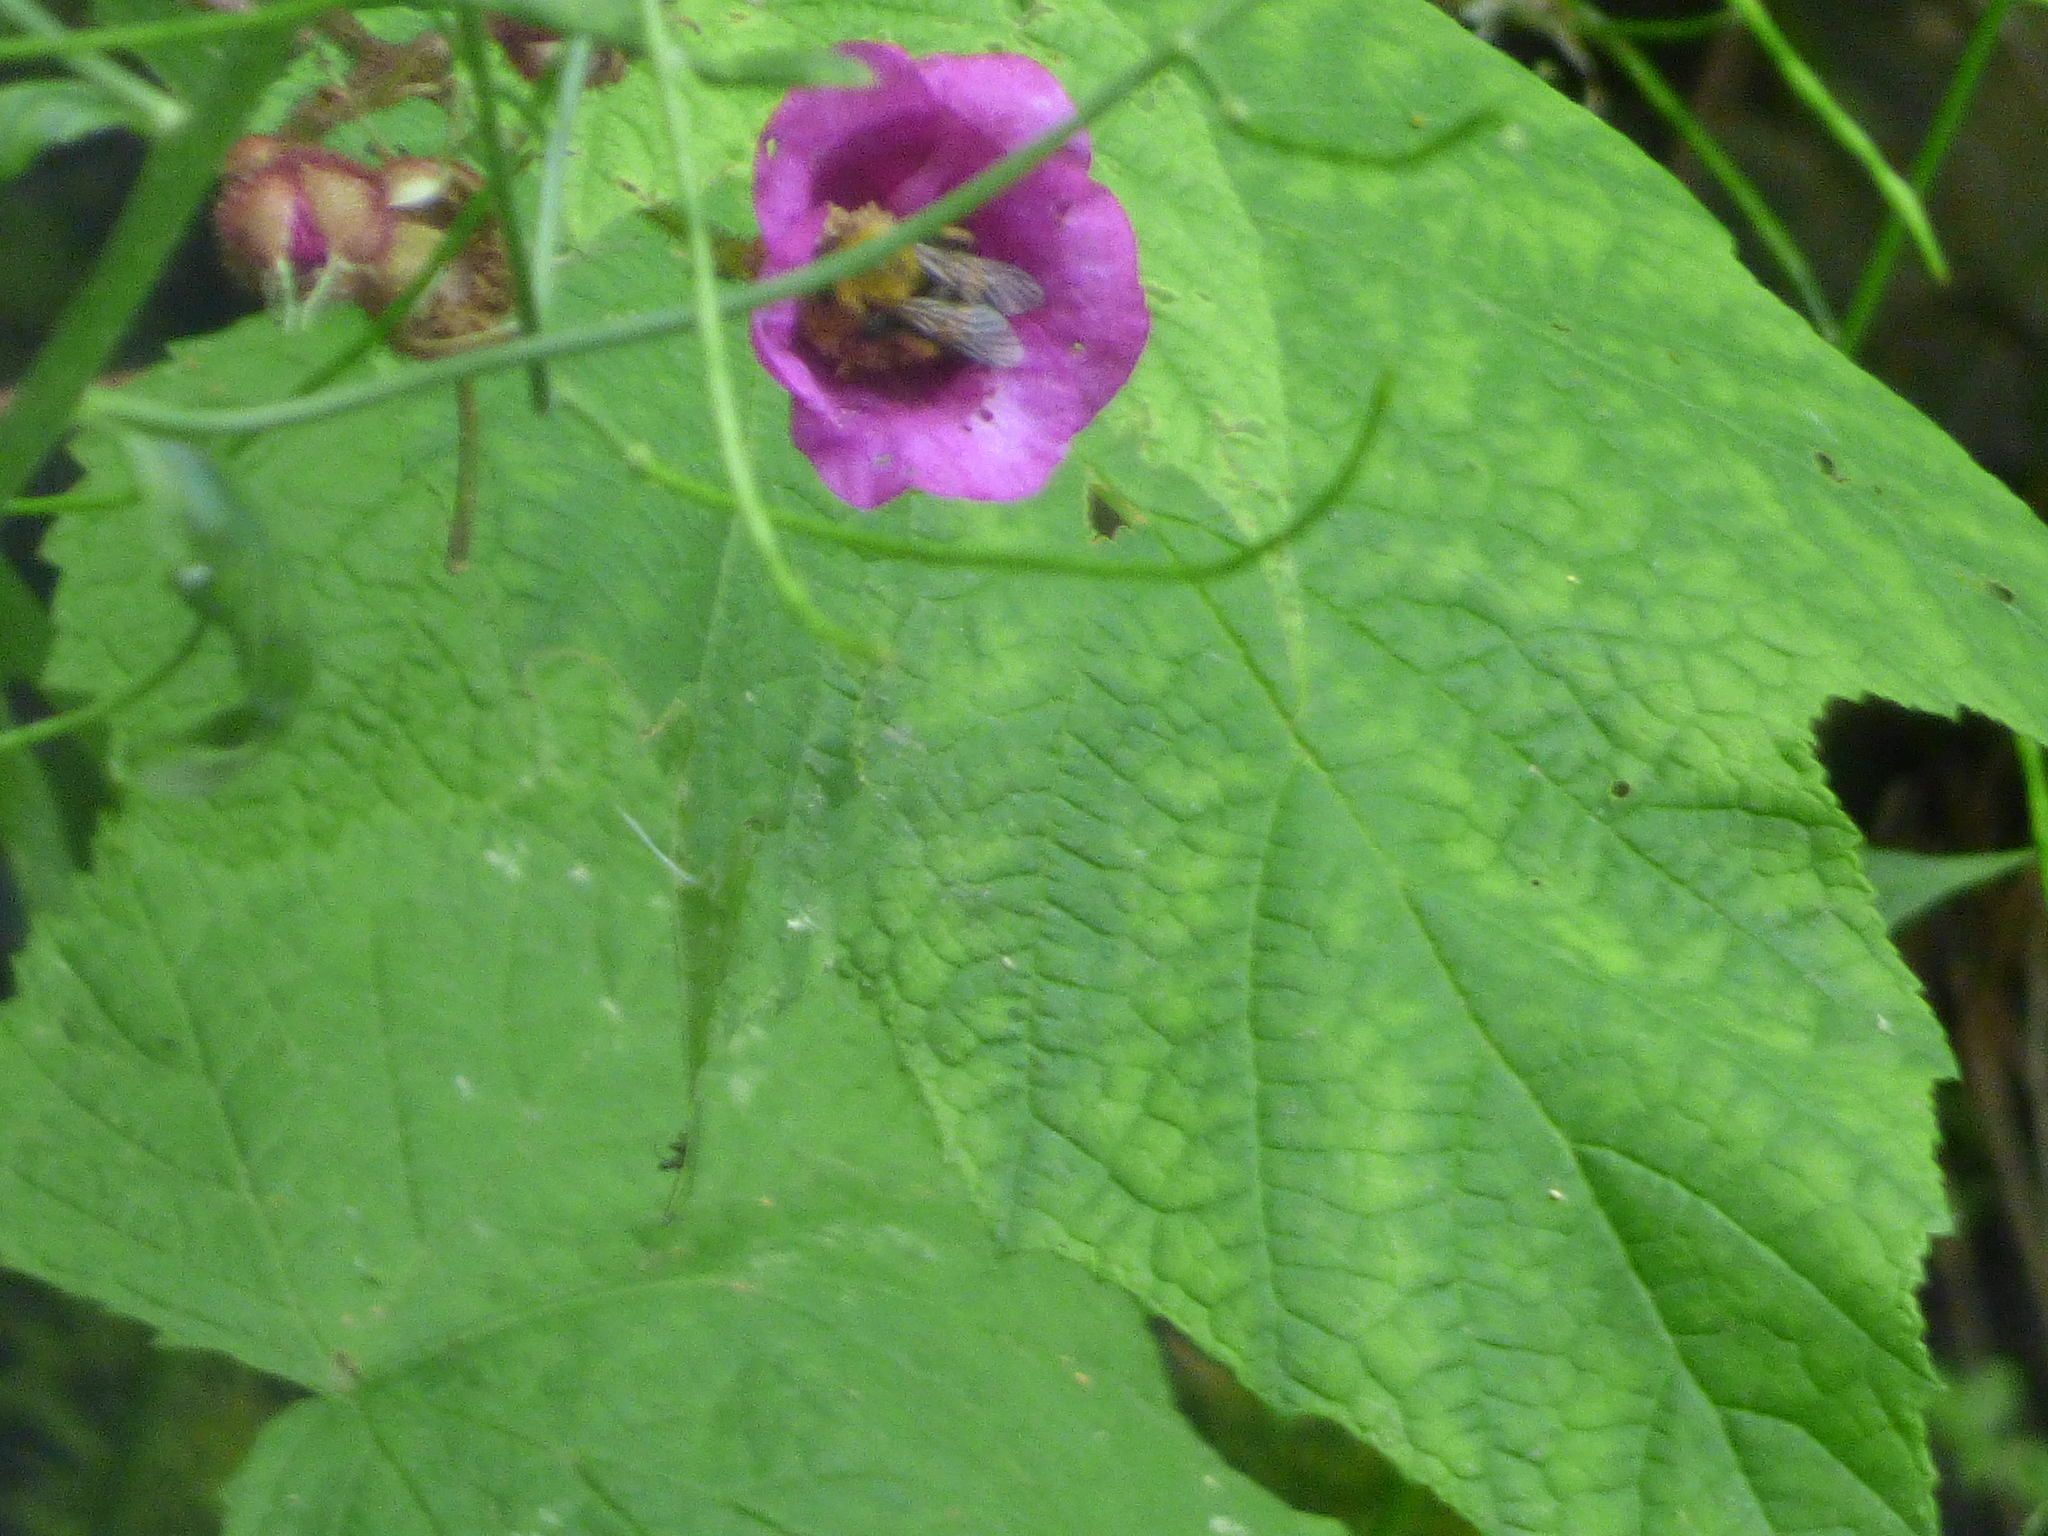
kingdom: Plantae
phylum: Tracheophyta
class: Magnoliopsida
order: Rosales
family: Rosaceae
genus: Rubus
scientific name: Rubus odoratus
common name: Purple-flowered raspberry
